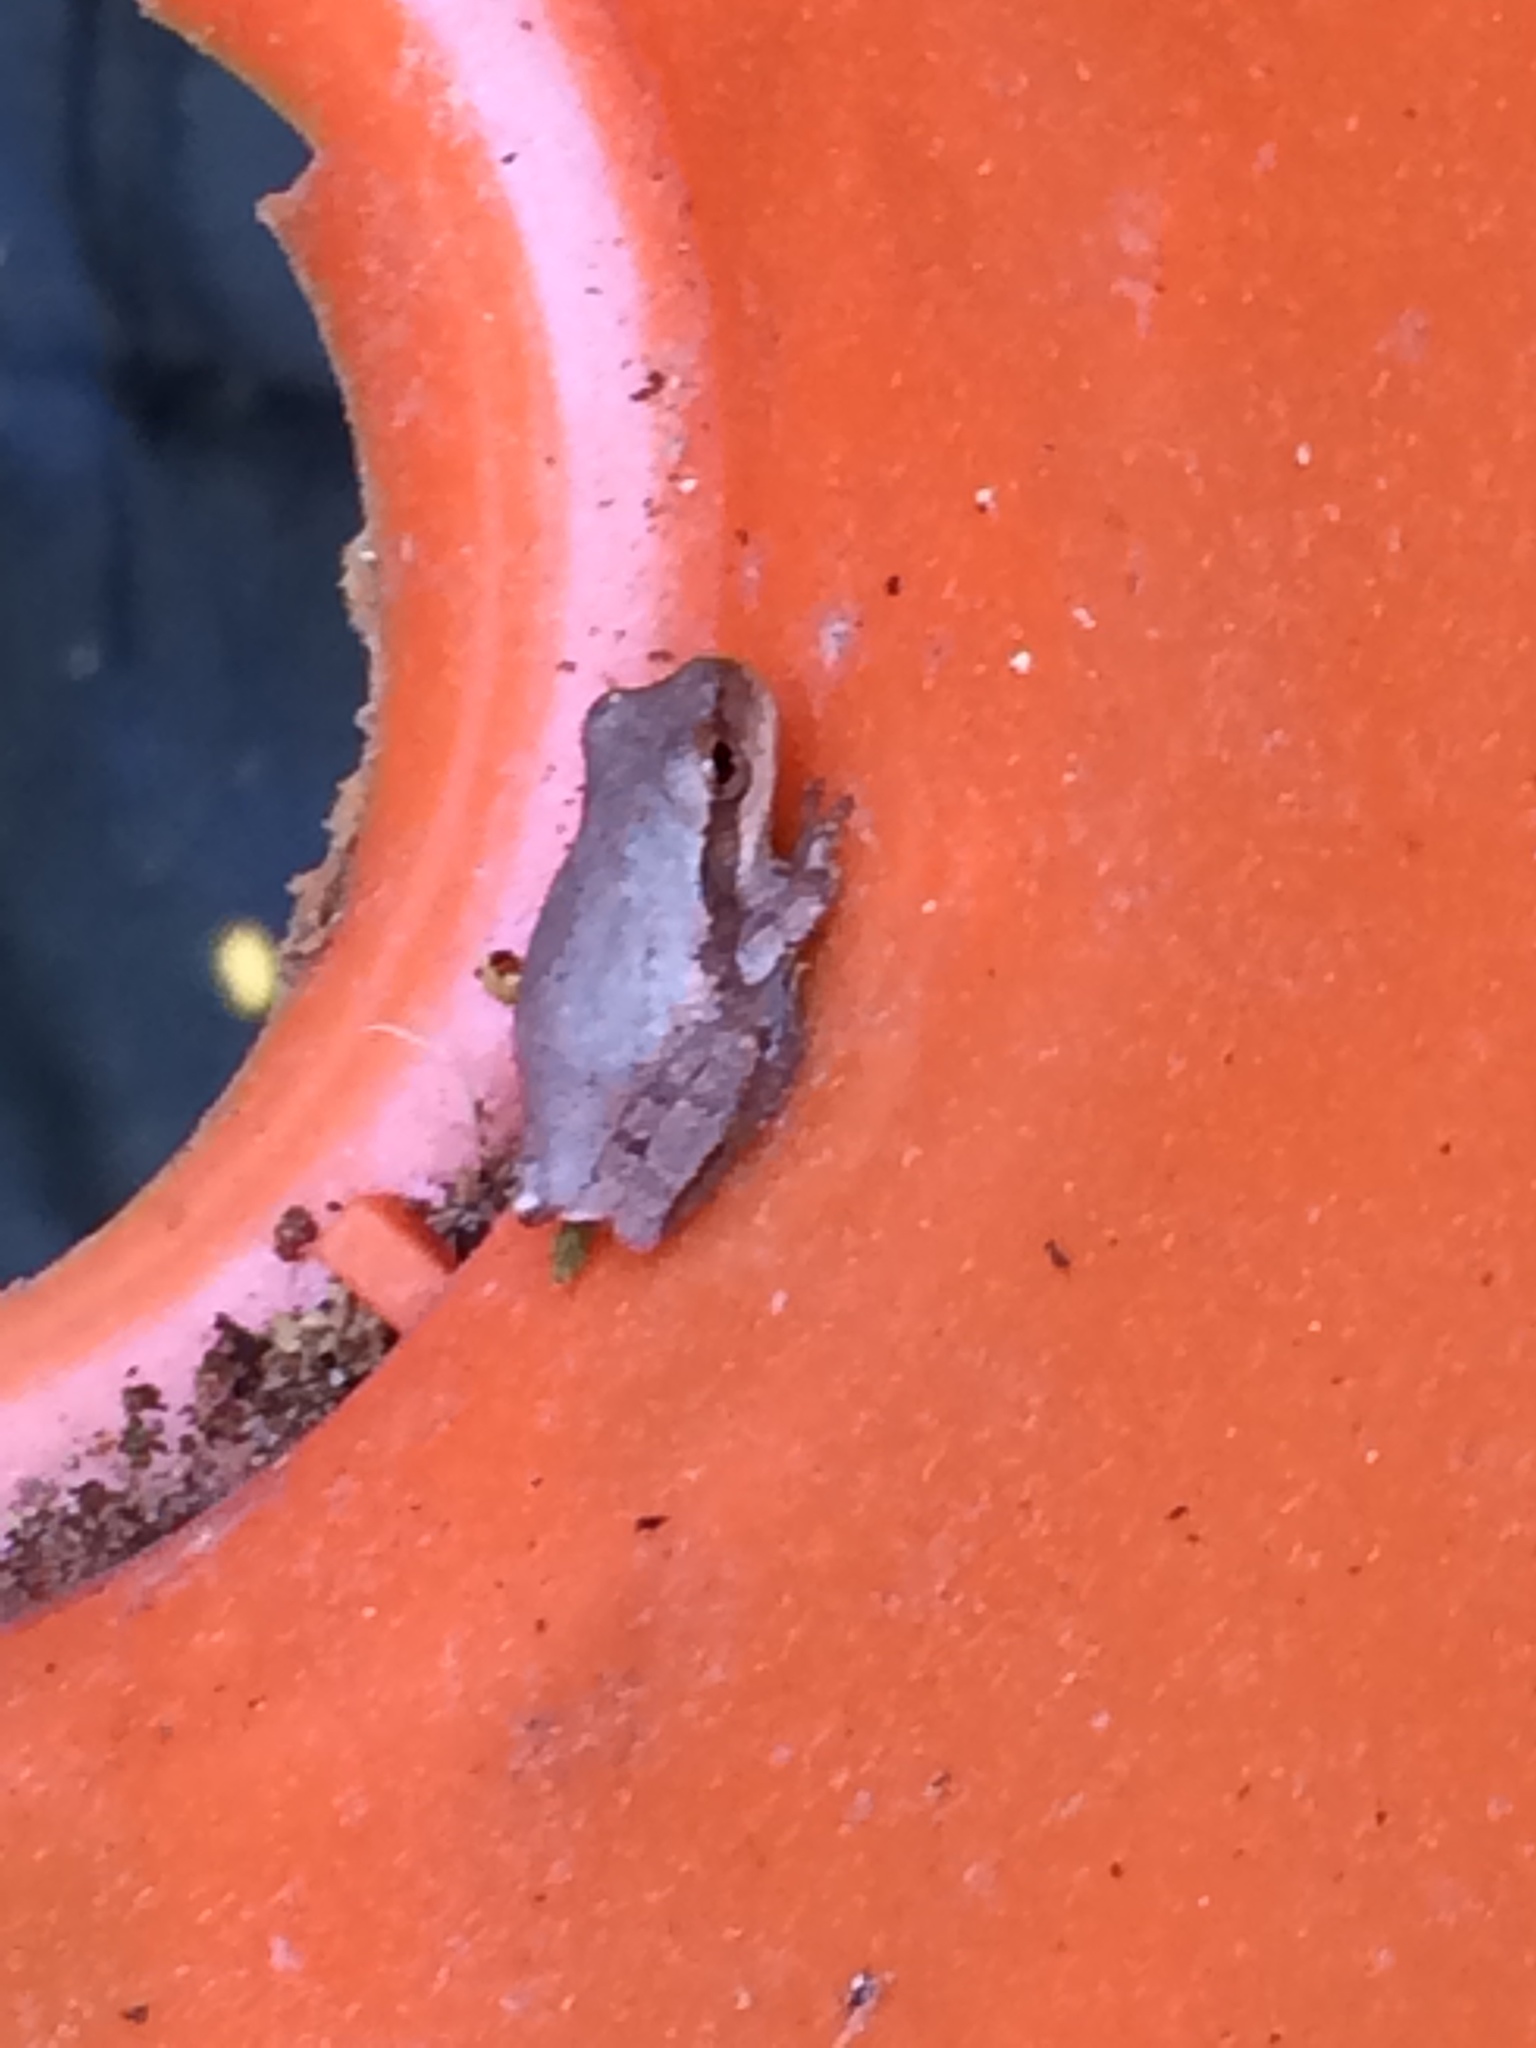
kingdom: Animalia
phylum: Chordata
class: Amphibia
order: Anura
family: Hylidae
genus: Hyla
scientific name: Hyla femoralis
